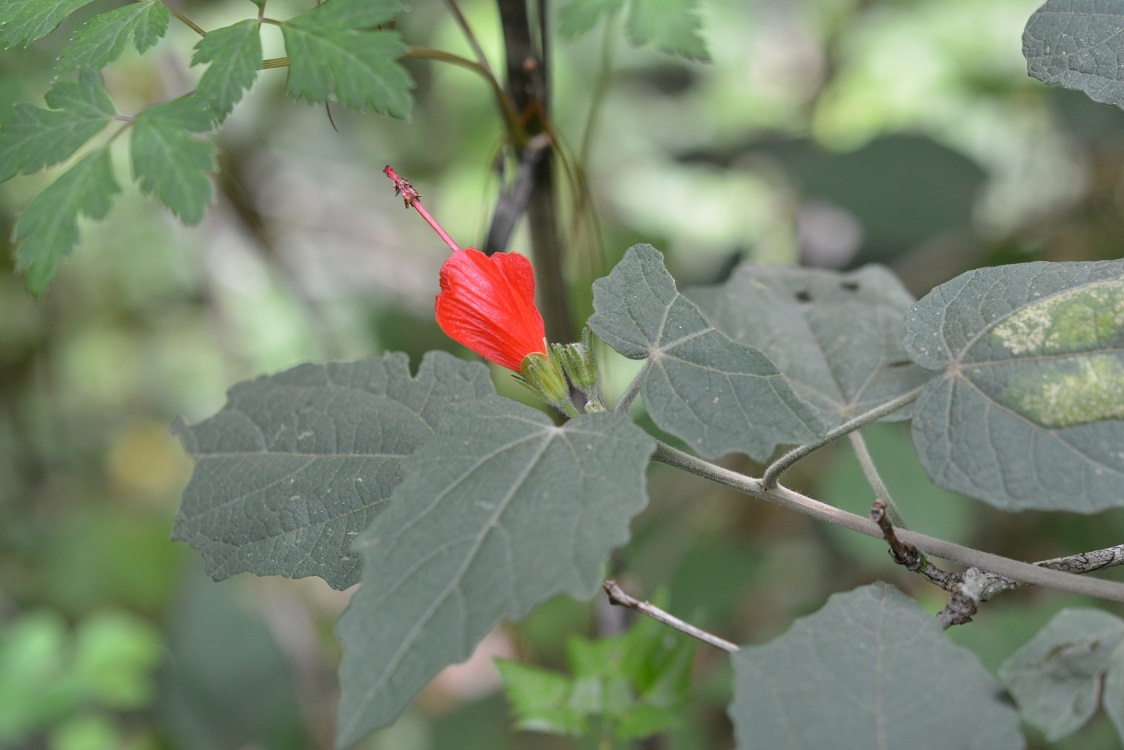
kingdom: Plantae
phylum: Tracheophyta
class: Magnoliopsida
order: Malvales
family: Malvaceae
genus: Malvaviscus
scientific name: Malvaviscus arboreus
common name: Wax mallow
